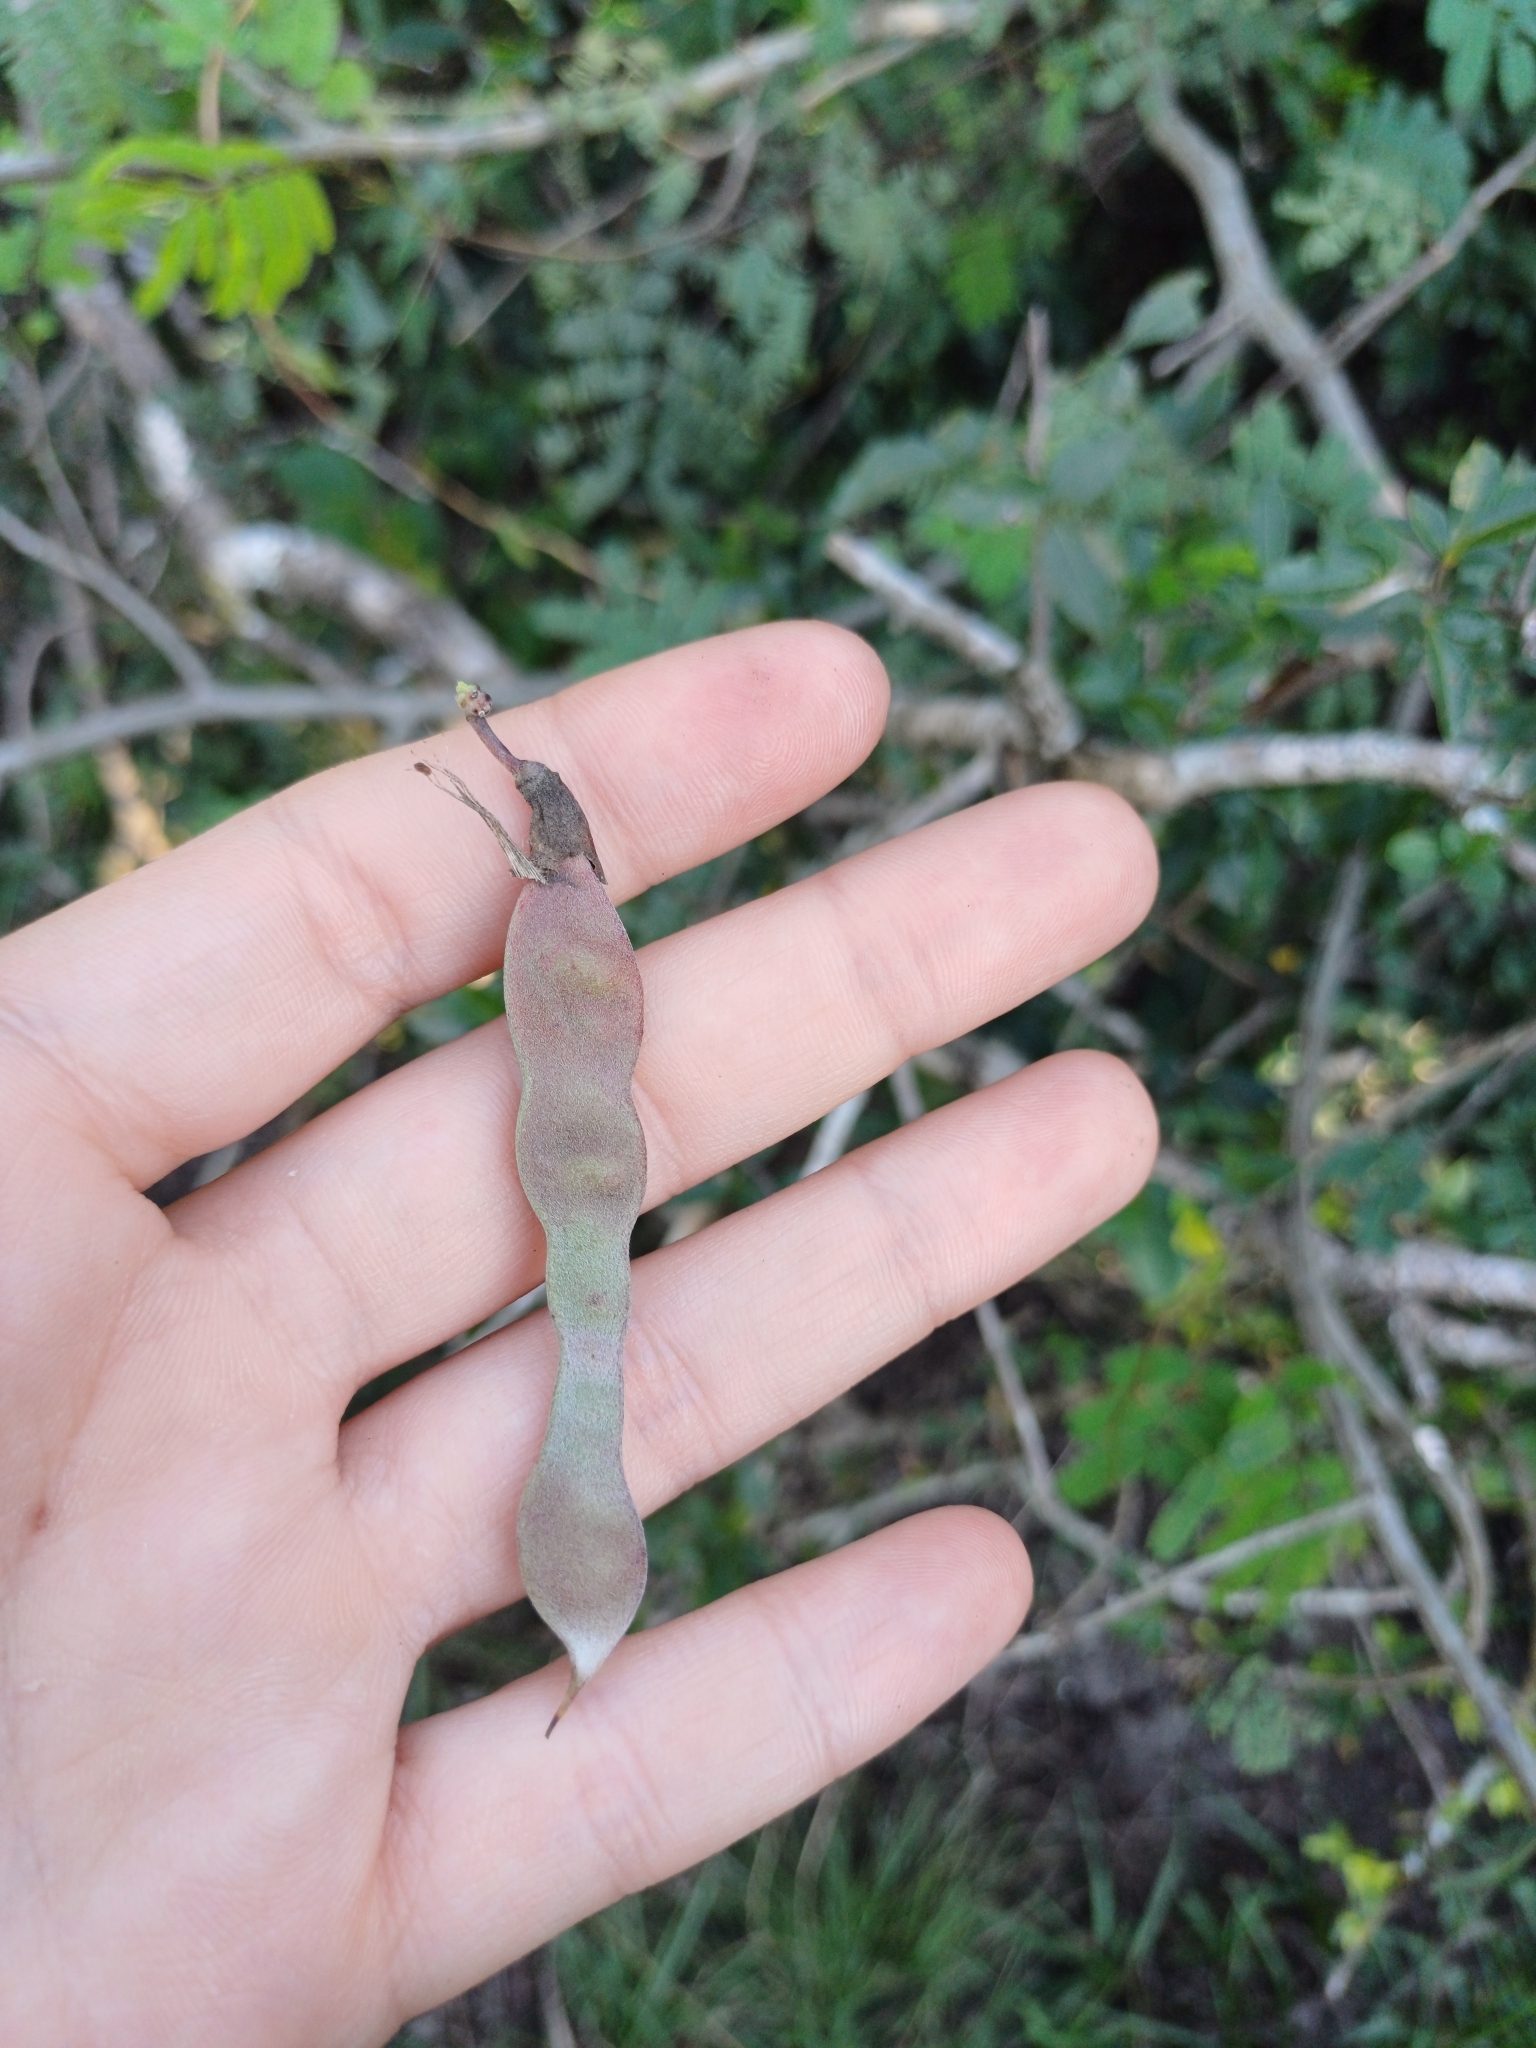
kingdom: Plantae
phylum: Tracheophyta
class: Magnoliopsida
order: Fabales
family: Fabaceae
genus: Camptosema
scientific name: Camptosema rubicundum
